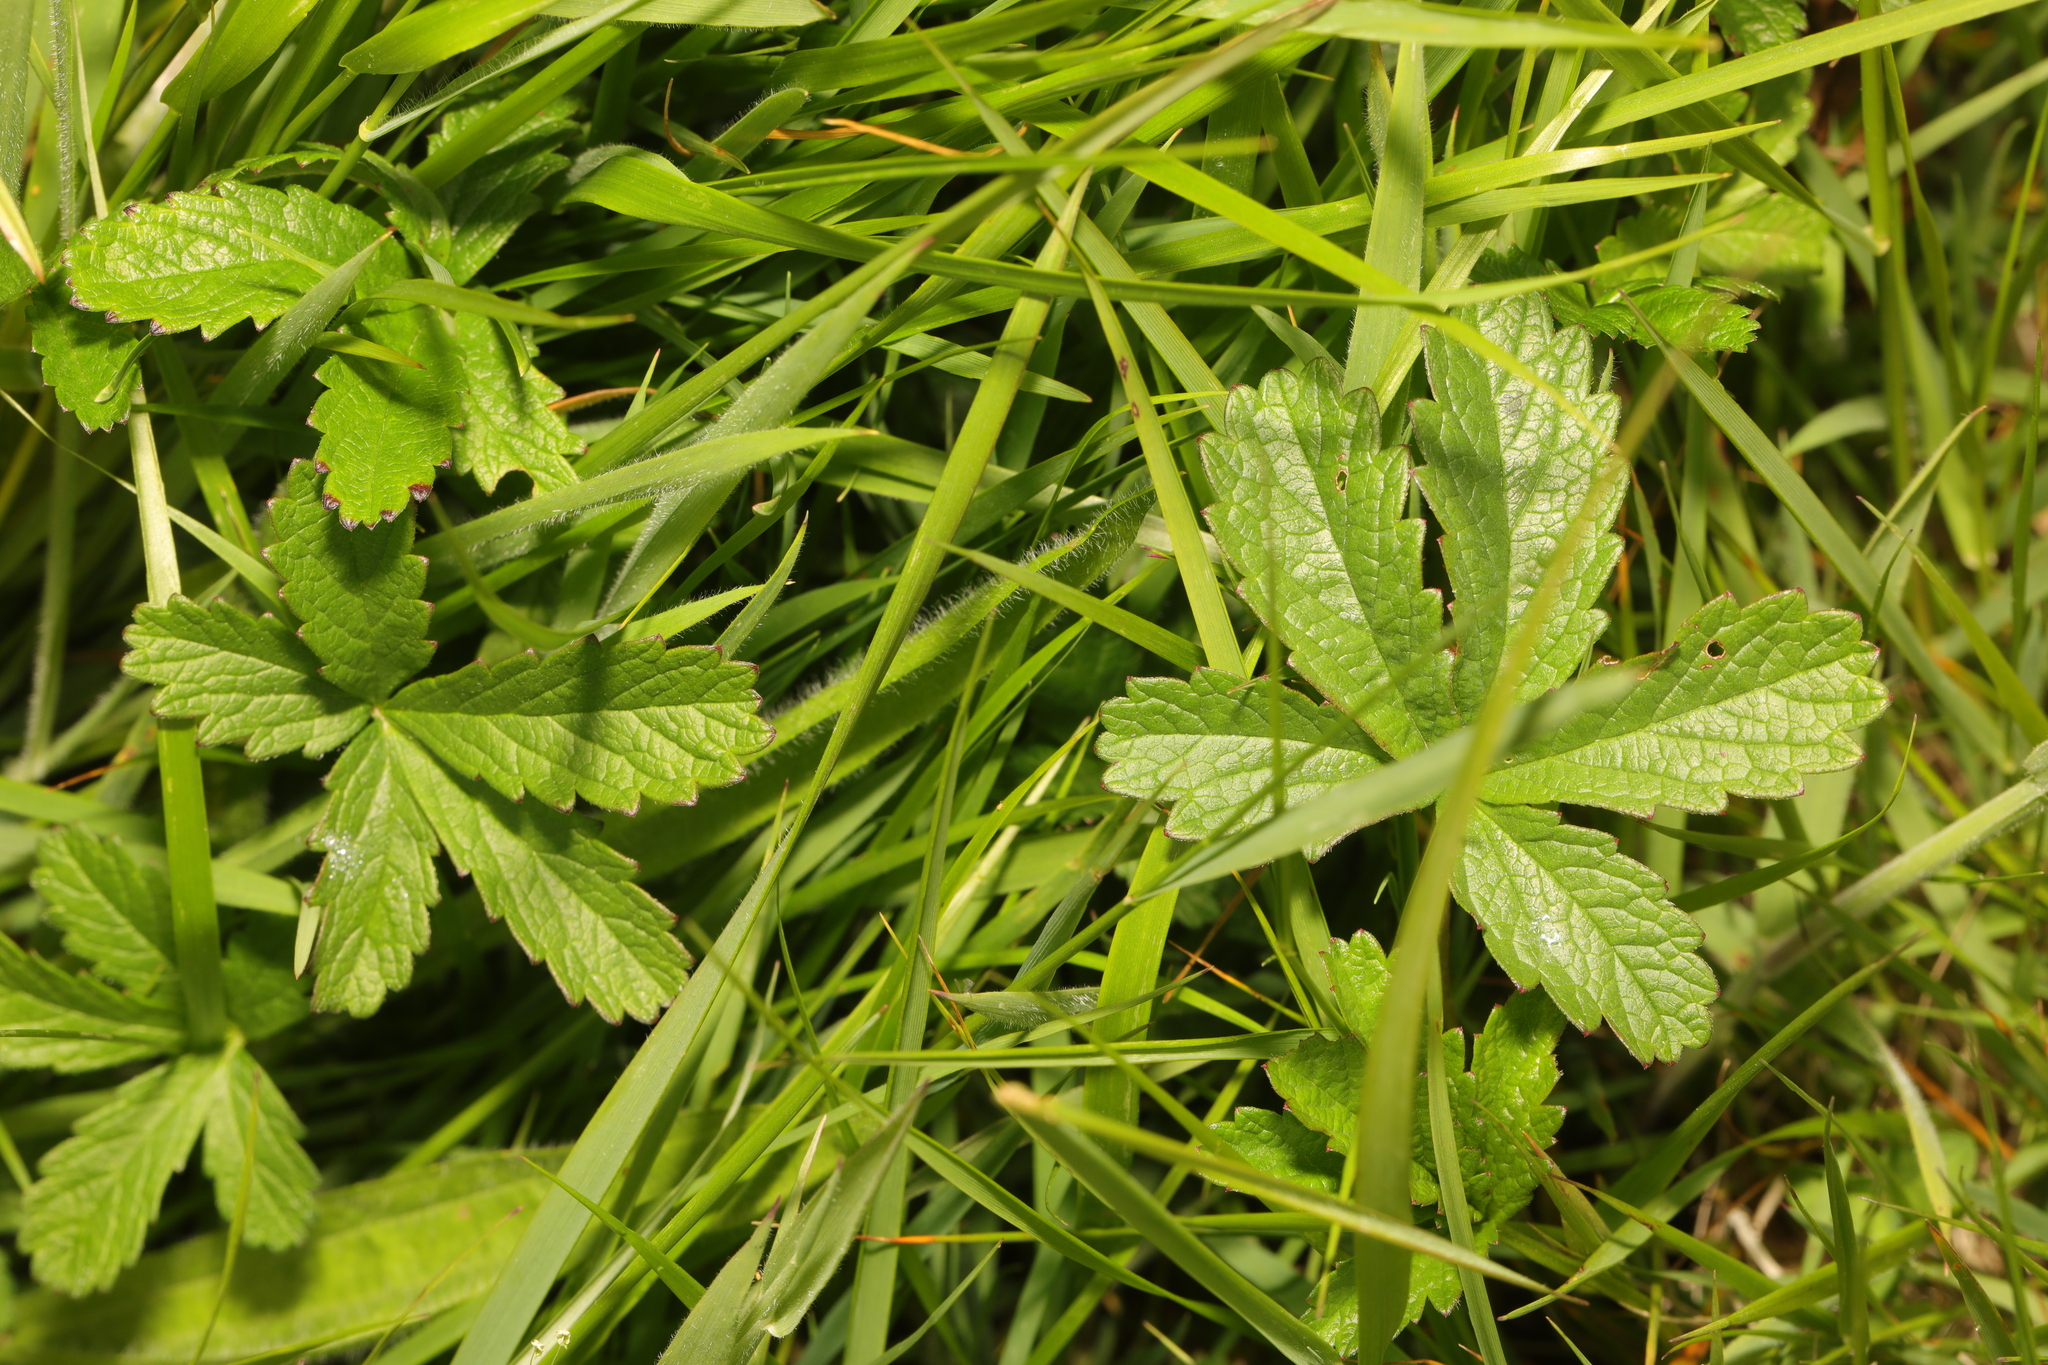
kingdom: Plantae
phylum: Tracheophyta
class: Magnoliopsida
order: Rosales
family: Rosaceae
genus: Potentilla
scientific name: Potentilla reptans
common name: Creeping cinquefoil
